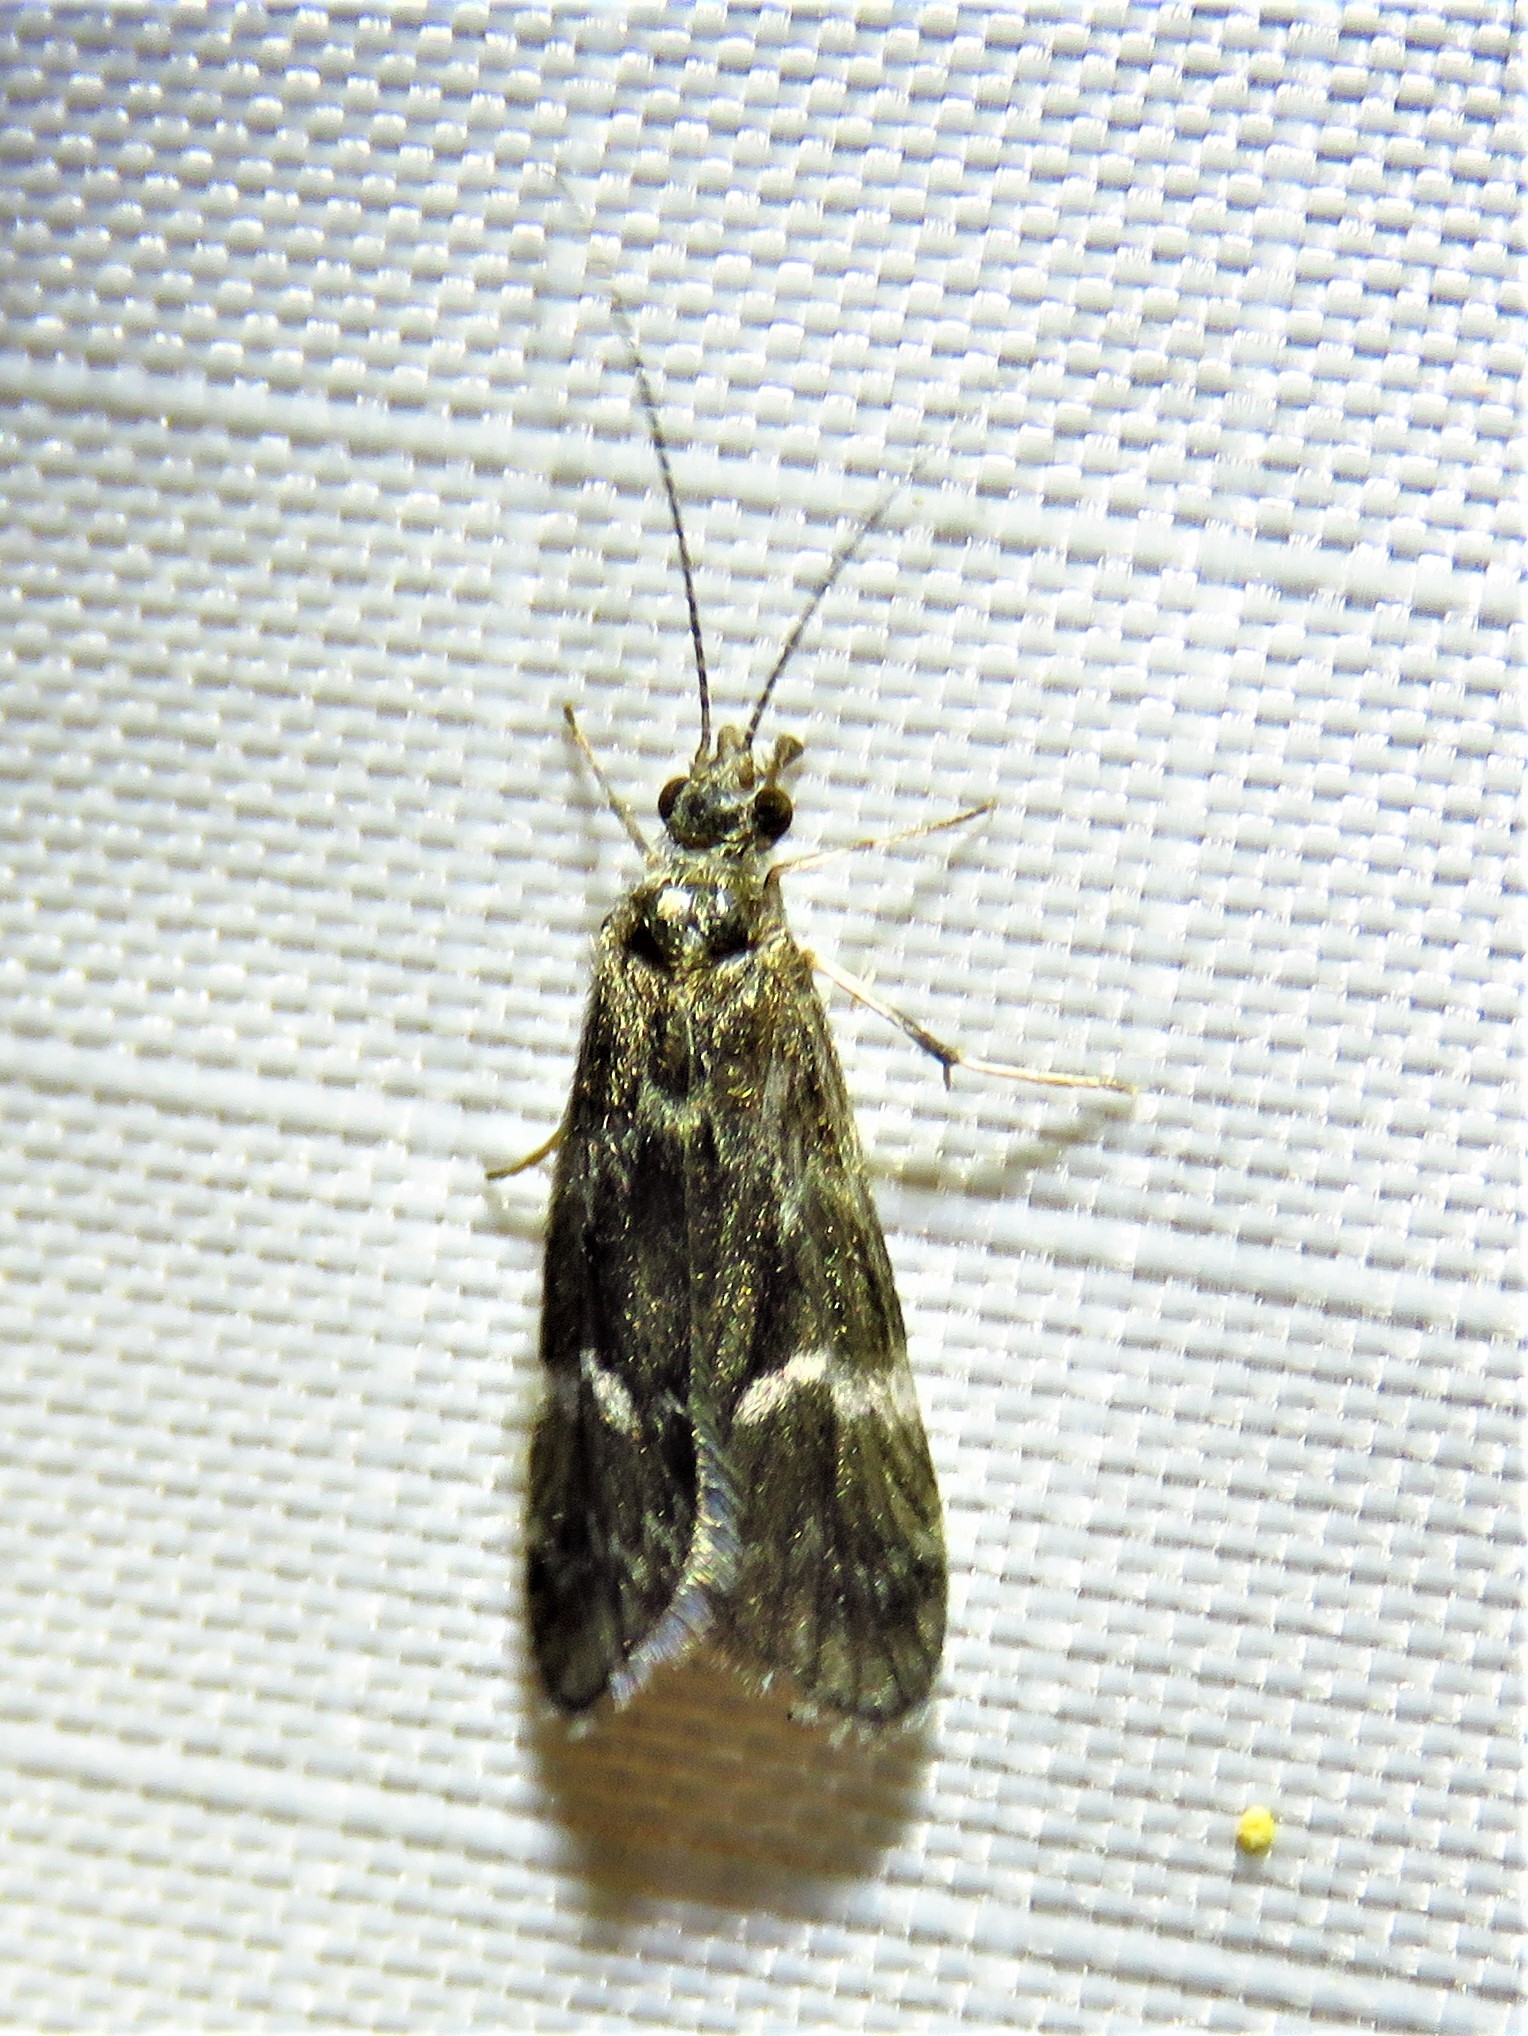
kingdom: Animalia
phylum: Arthropoda
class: Insecta
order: Trichoptera
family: Hydropsychidae
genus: Smicridea
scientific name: Smicridea fasciatella
